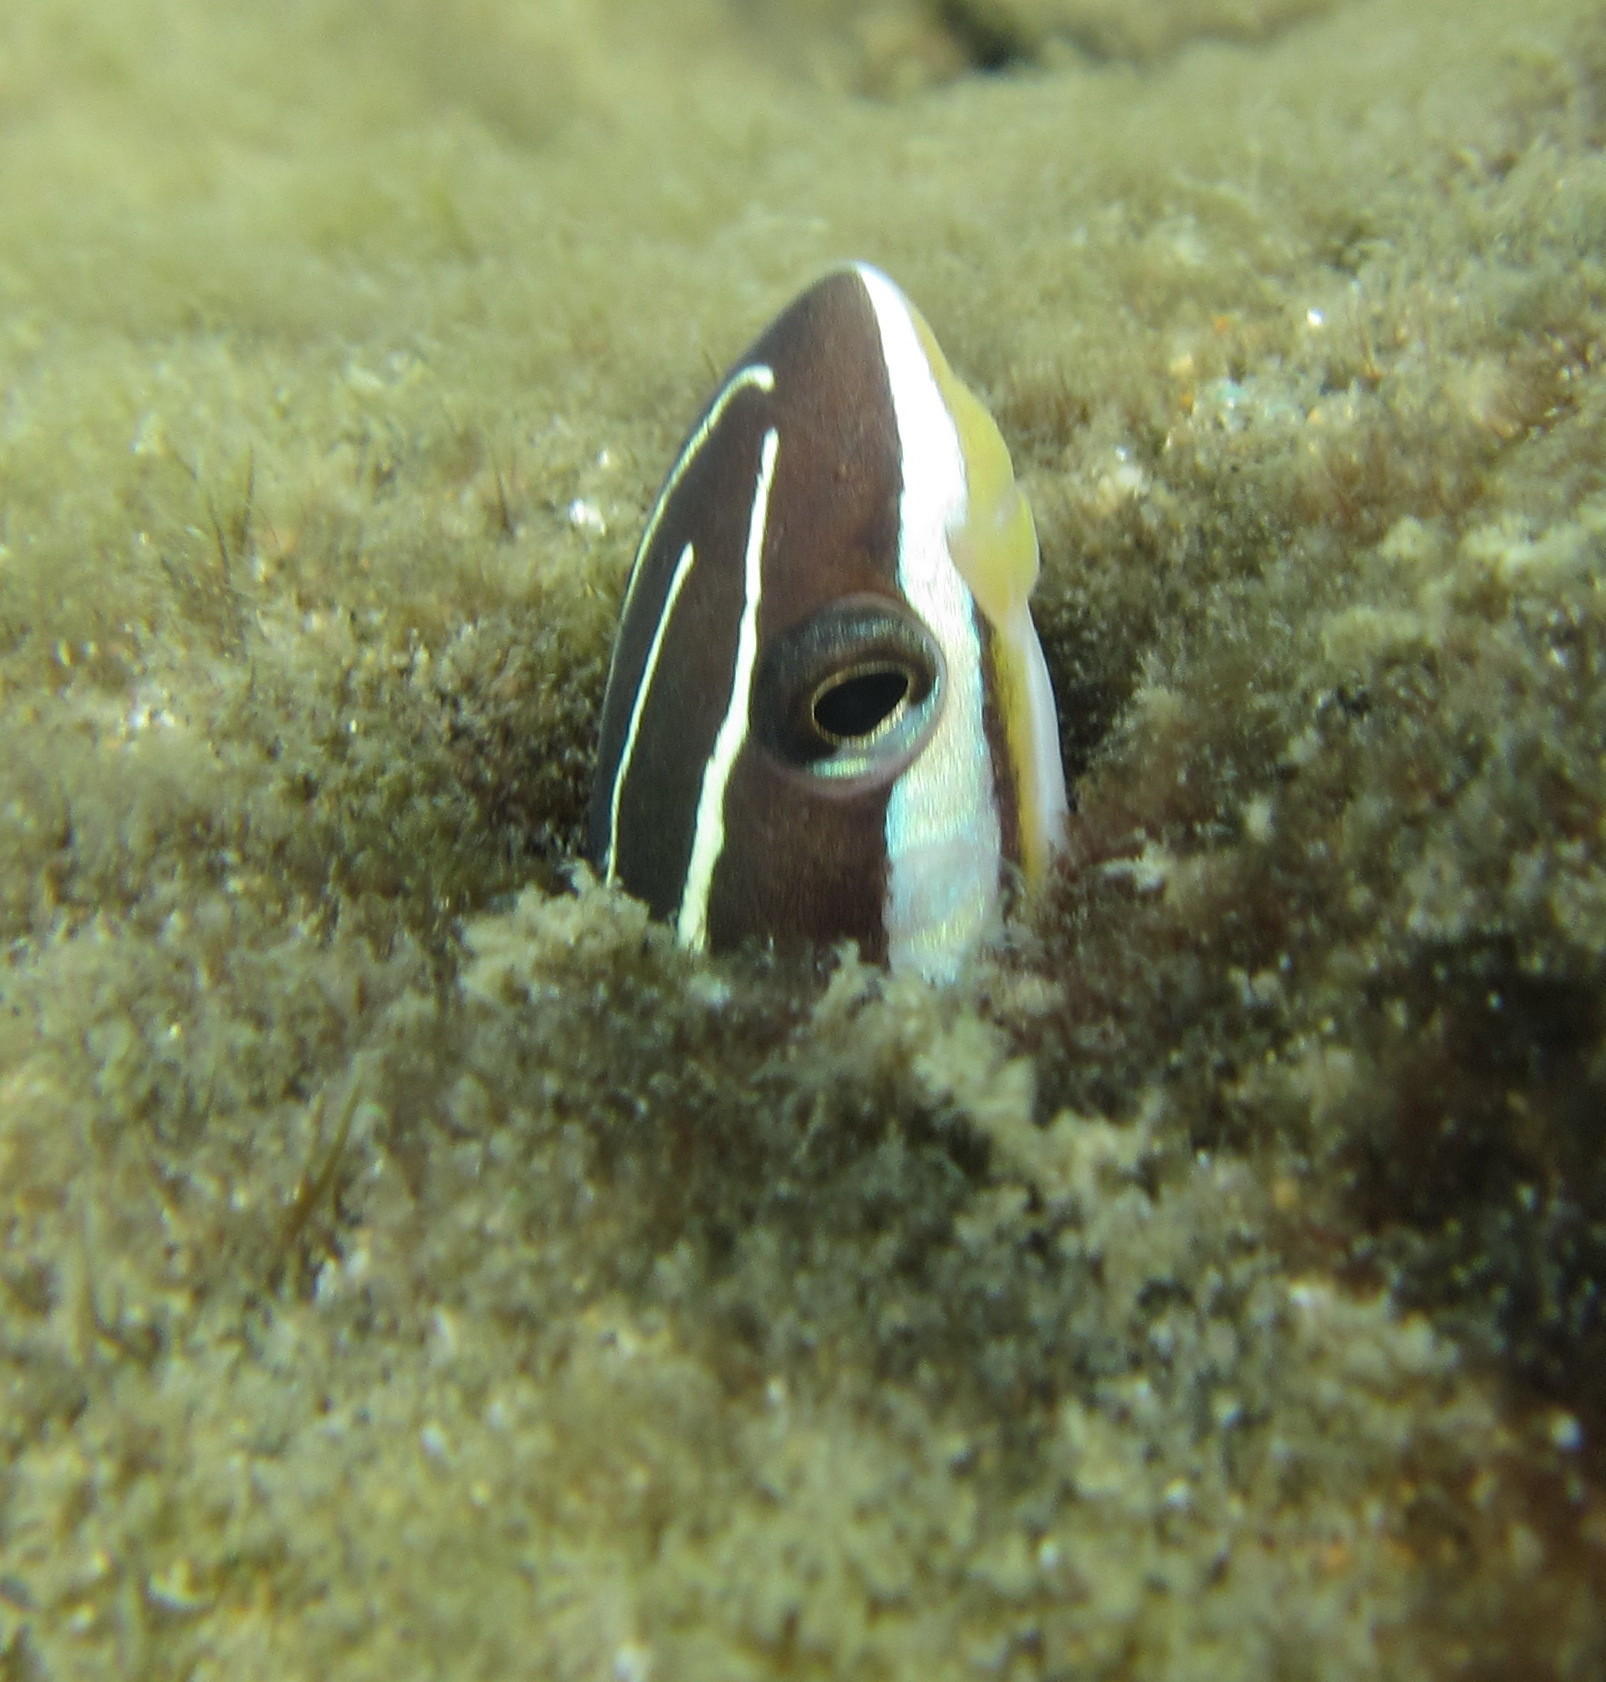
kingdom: Animalia
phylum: Chordata
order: Perciformes
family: Blenniidae
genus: Plagiotremus
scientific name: Plagiotremus tapeinosoma
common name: Hit and run blenny
